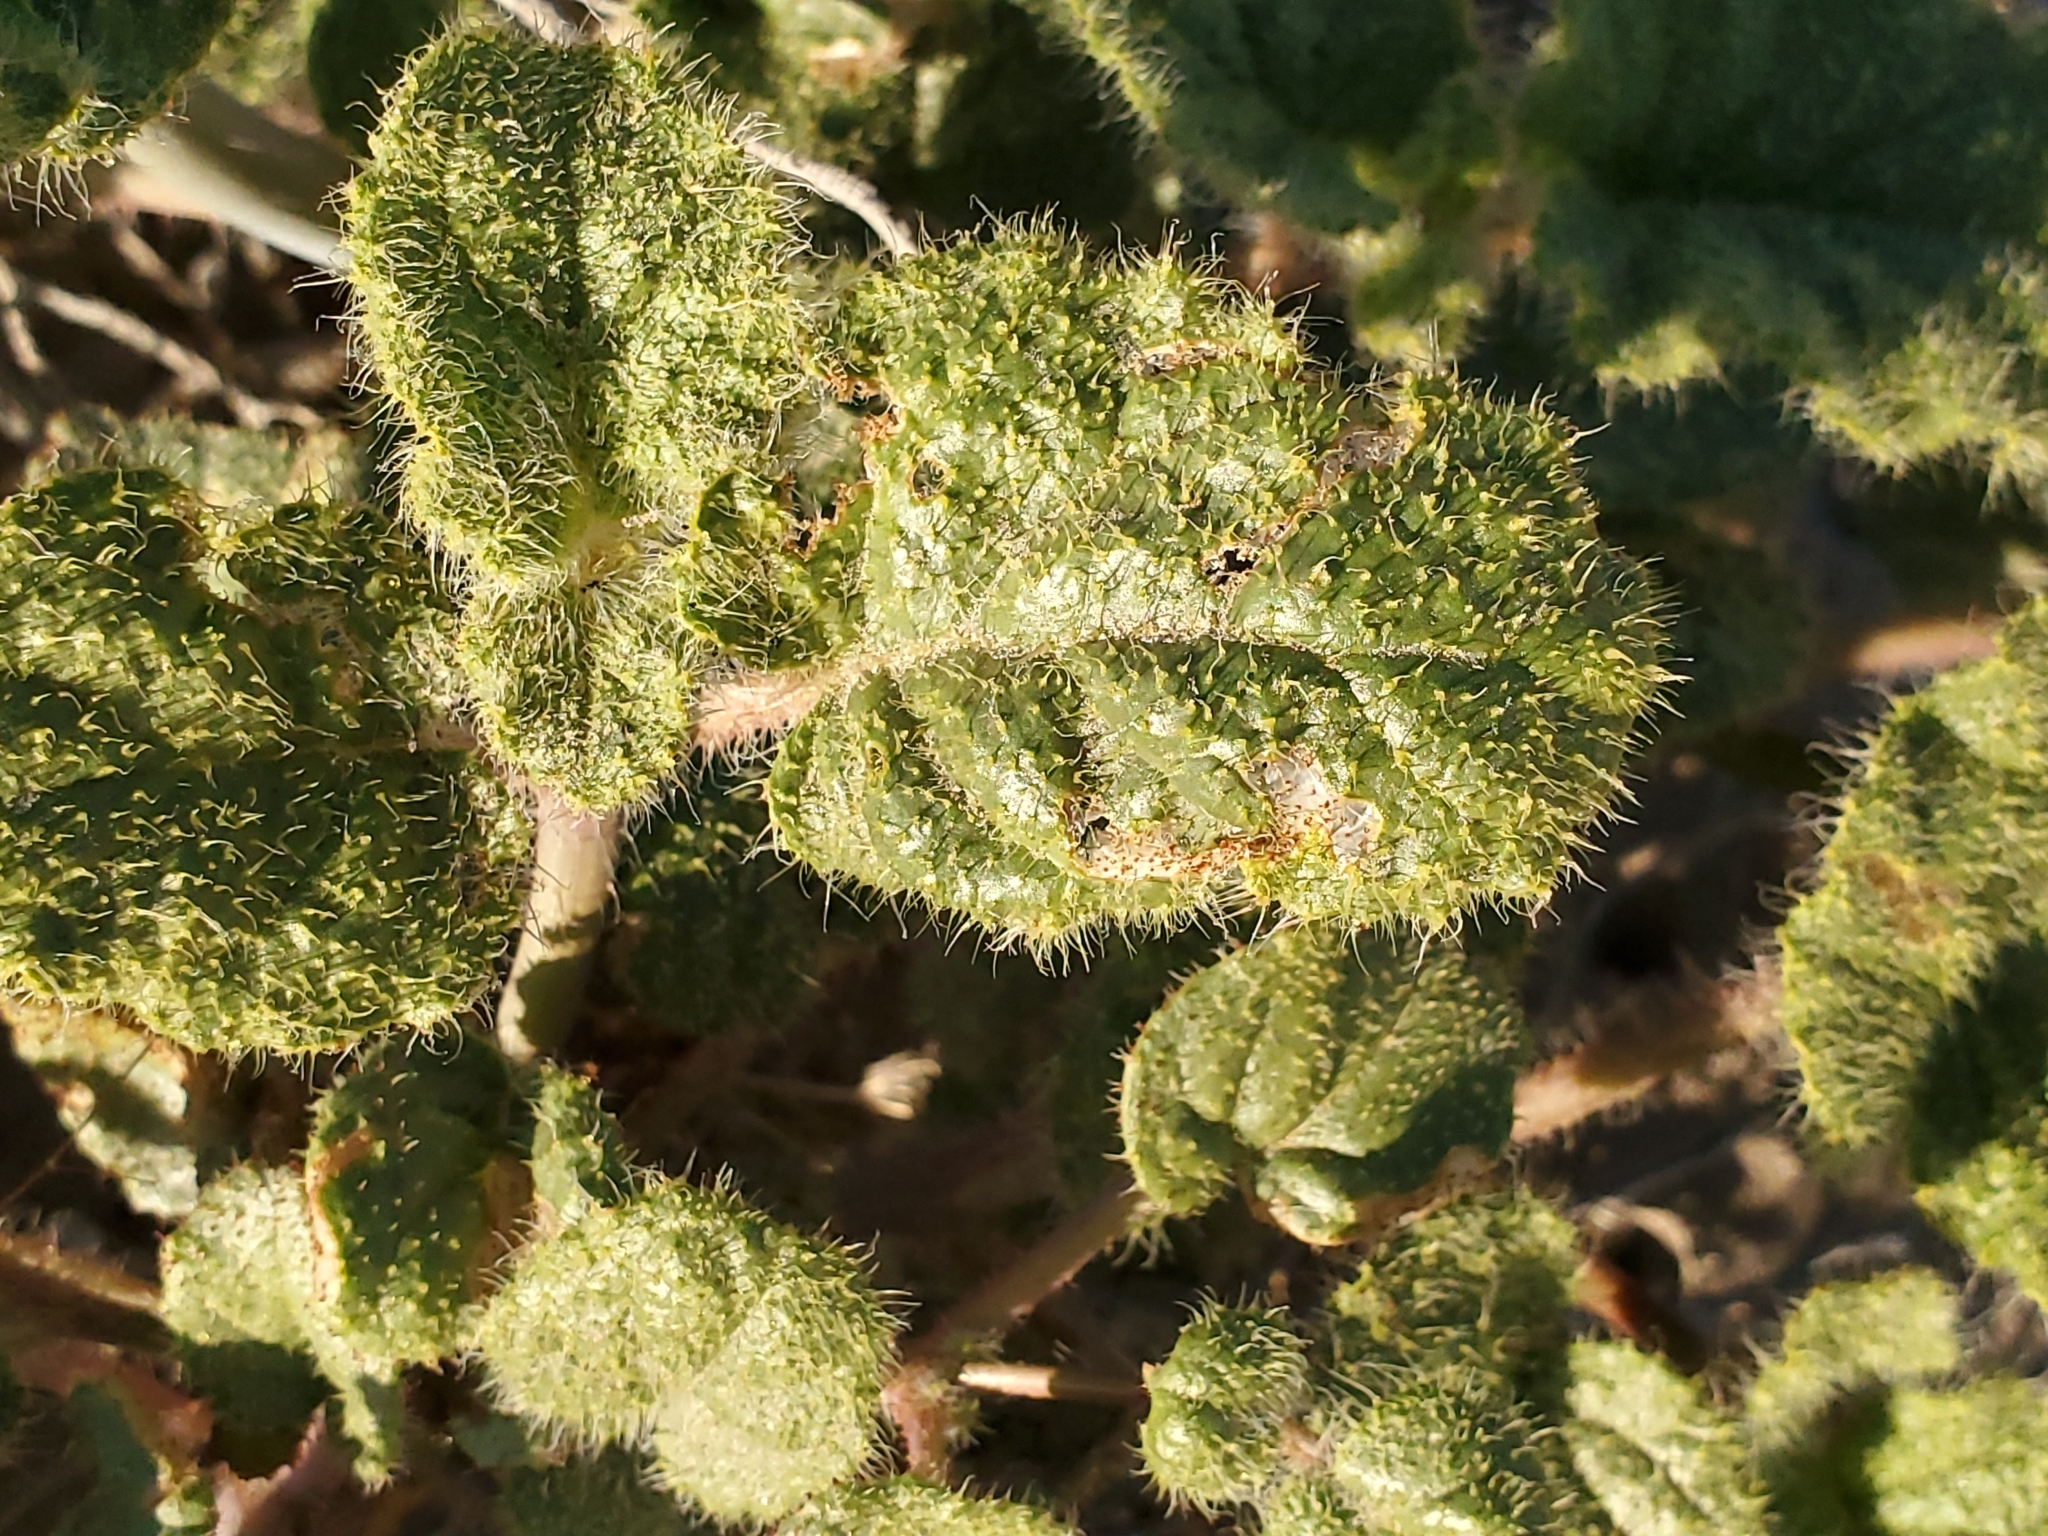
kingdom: Plantae
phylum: Tracheophyta
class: Magnoliopsida
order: Caryophyllales
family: Nyctaginaceae
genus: Anulocaulis
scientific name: Anulocaulis annulatus
